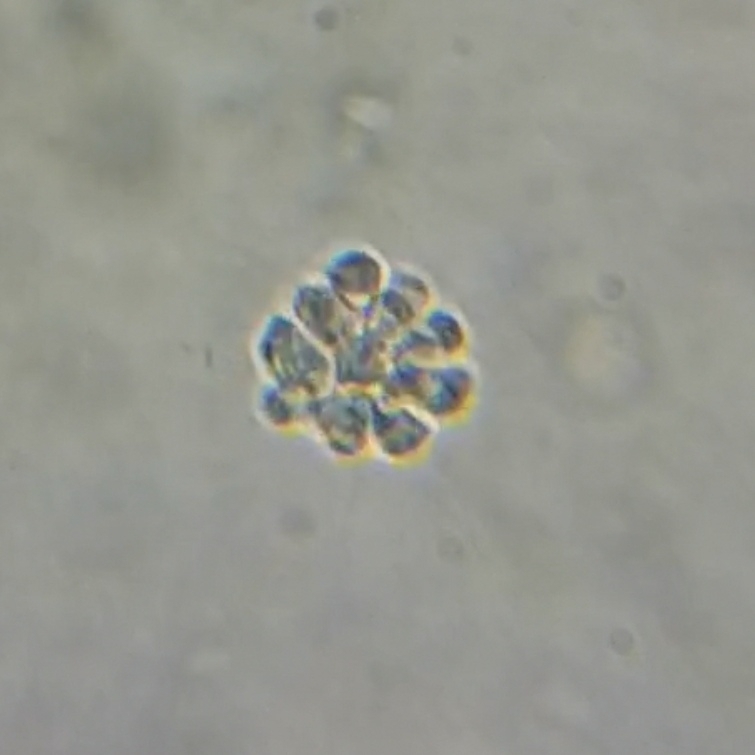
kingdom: Chromista
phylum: Ochrophyta
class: Chrysophyceae
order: Chromulinales
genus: Anthophysa
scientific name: Anthophysa vegetans
